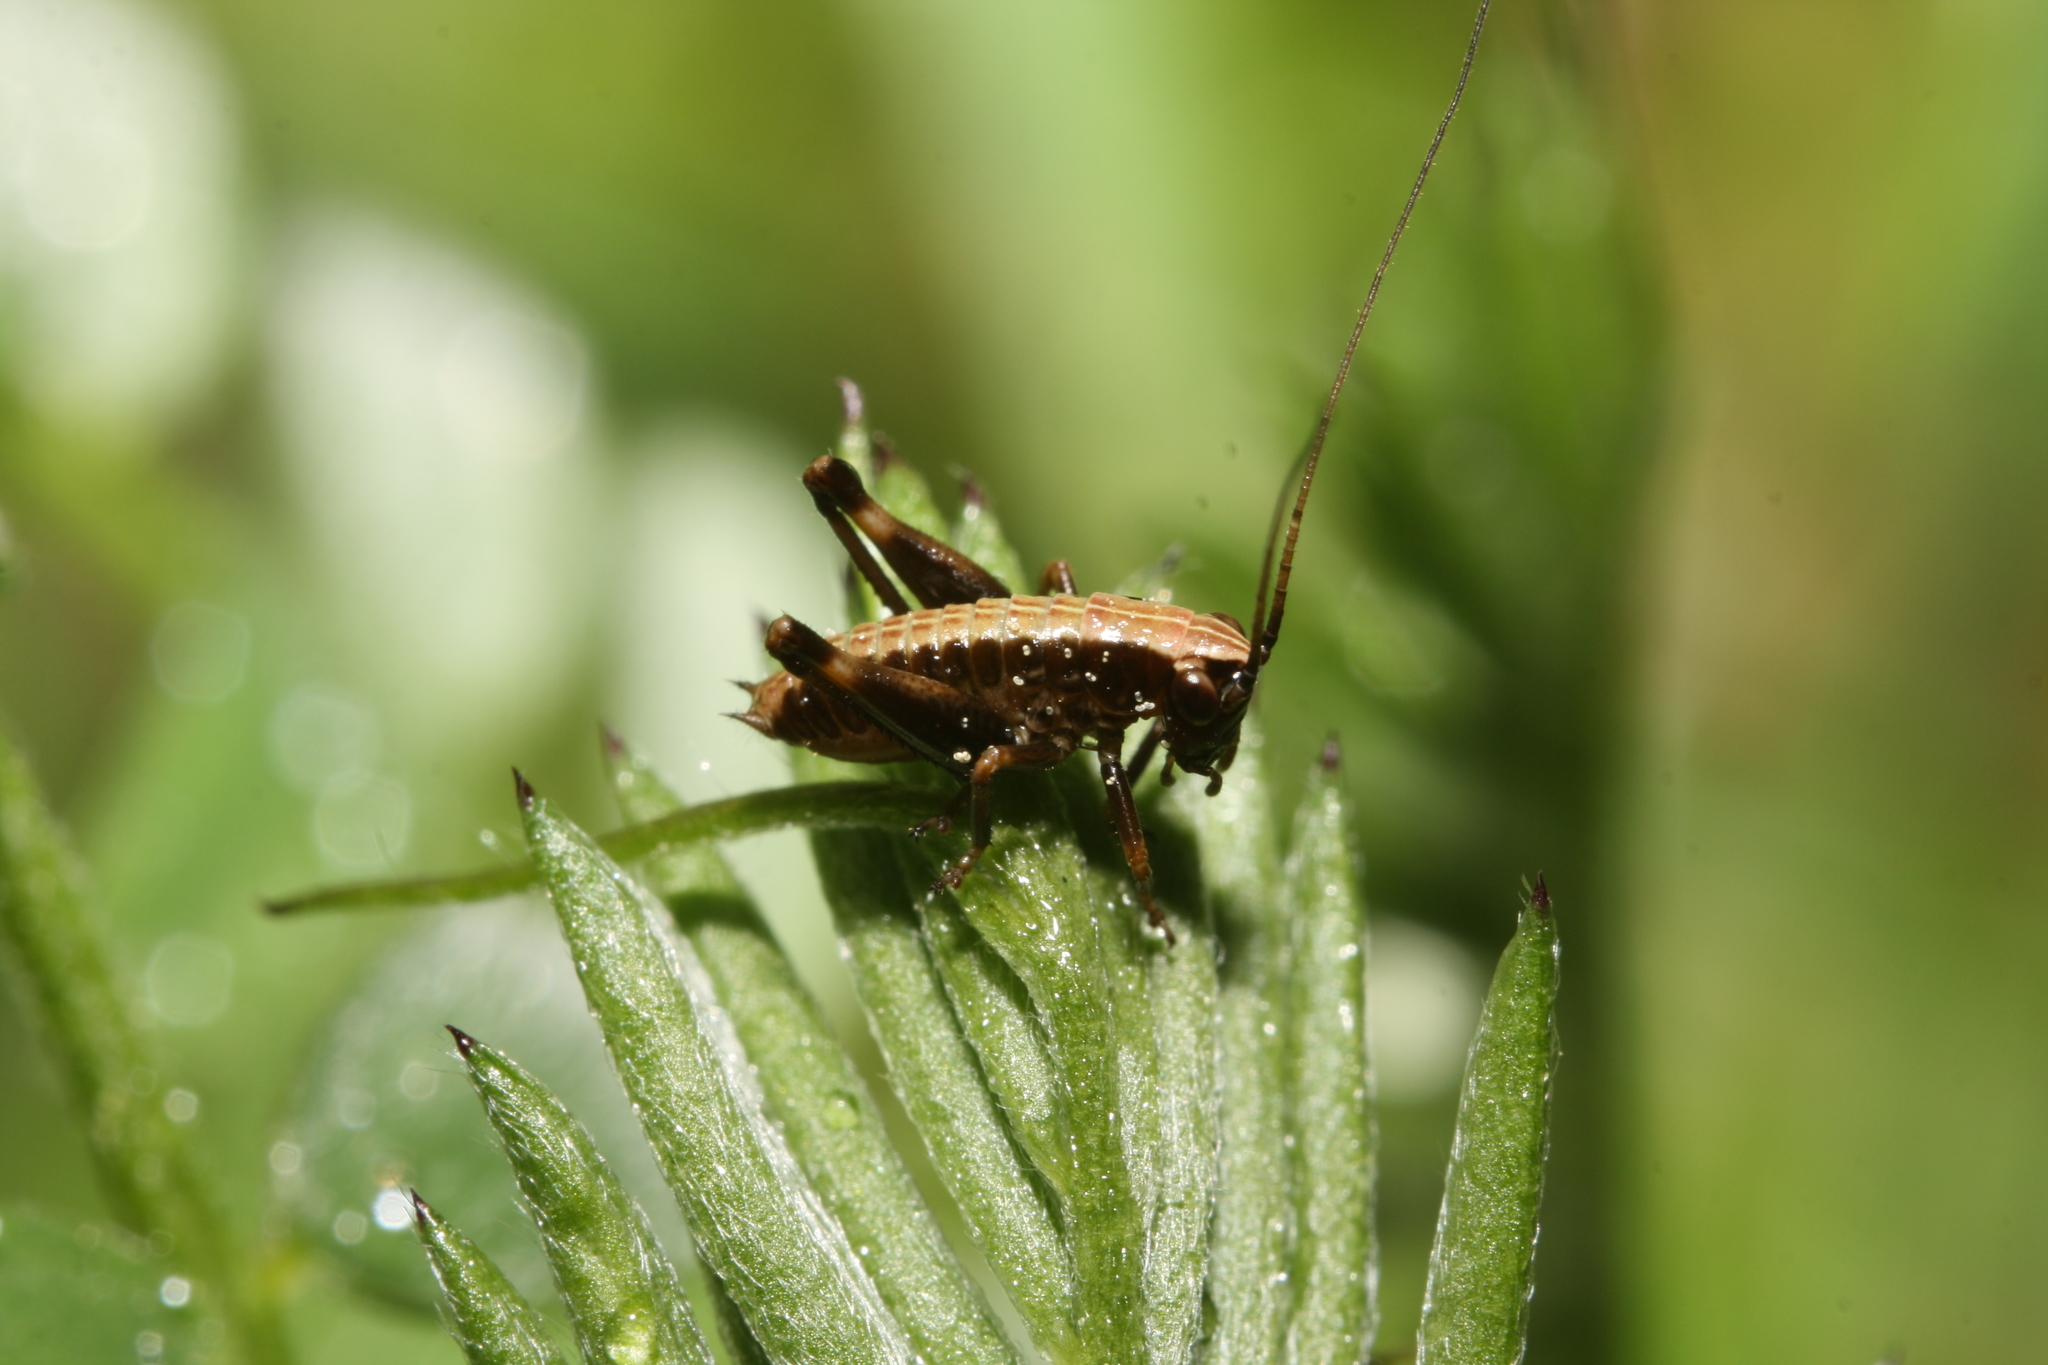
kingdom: Animalia
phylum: Arthropoda
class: Insecta
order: Orthoptera
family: Tettigoniidae
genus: Pholidoptera
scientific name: Pholidoptera griseoaptera
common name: Dark bush-cricket
